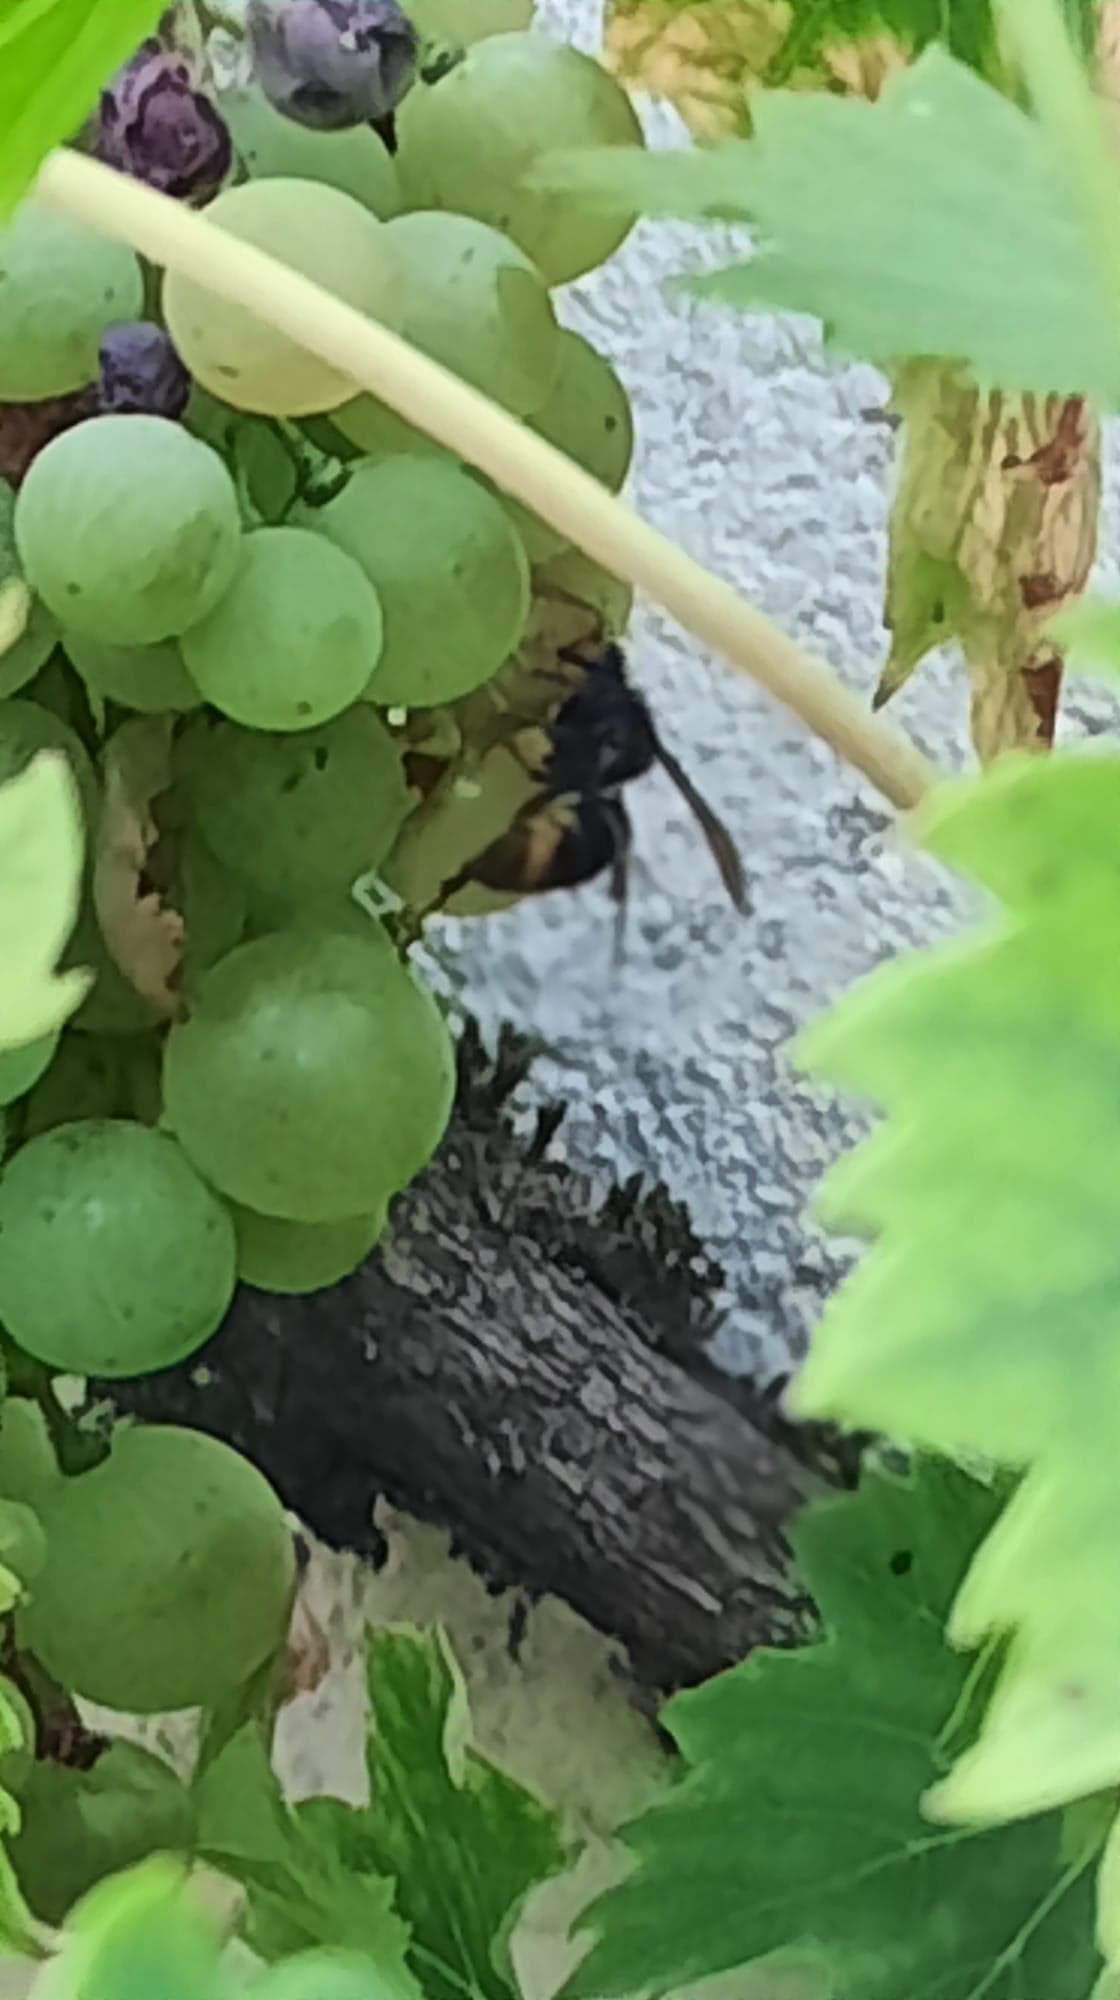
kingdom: Animalia
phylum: Arthropoda
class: Insecta
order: Hymenoptera
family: Vespidae
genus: Vespa
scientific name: Vespa velutina
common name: Asian hornet
